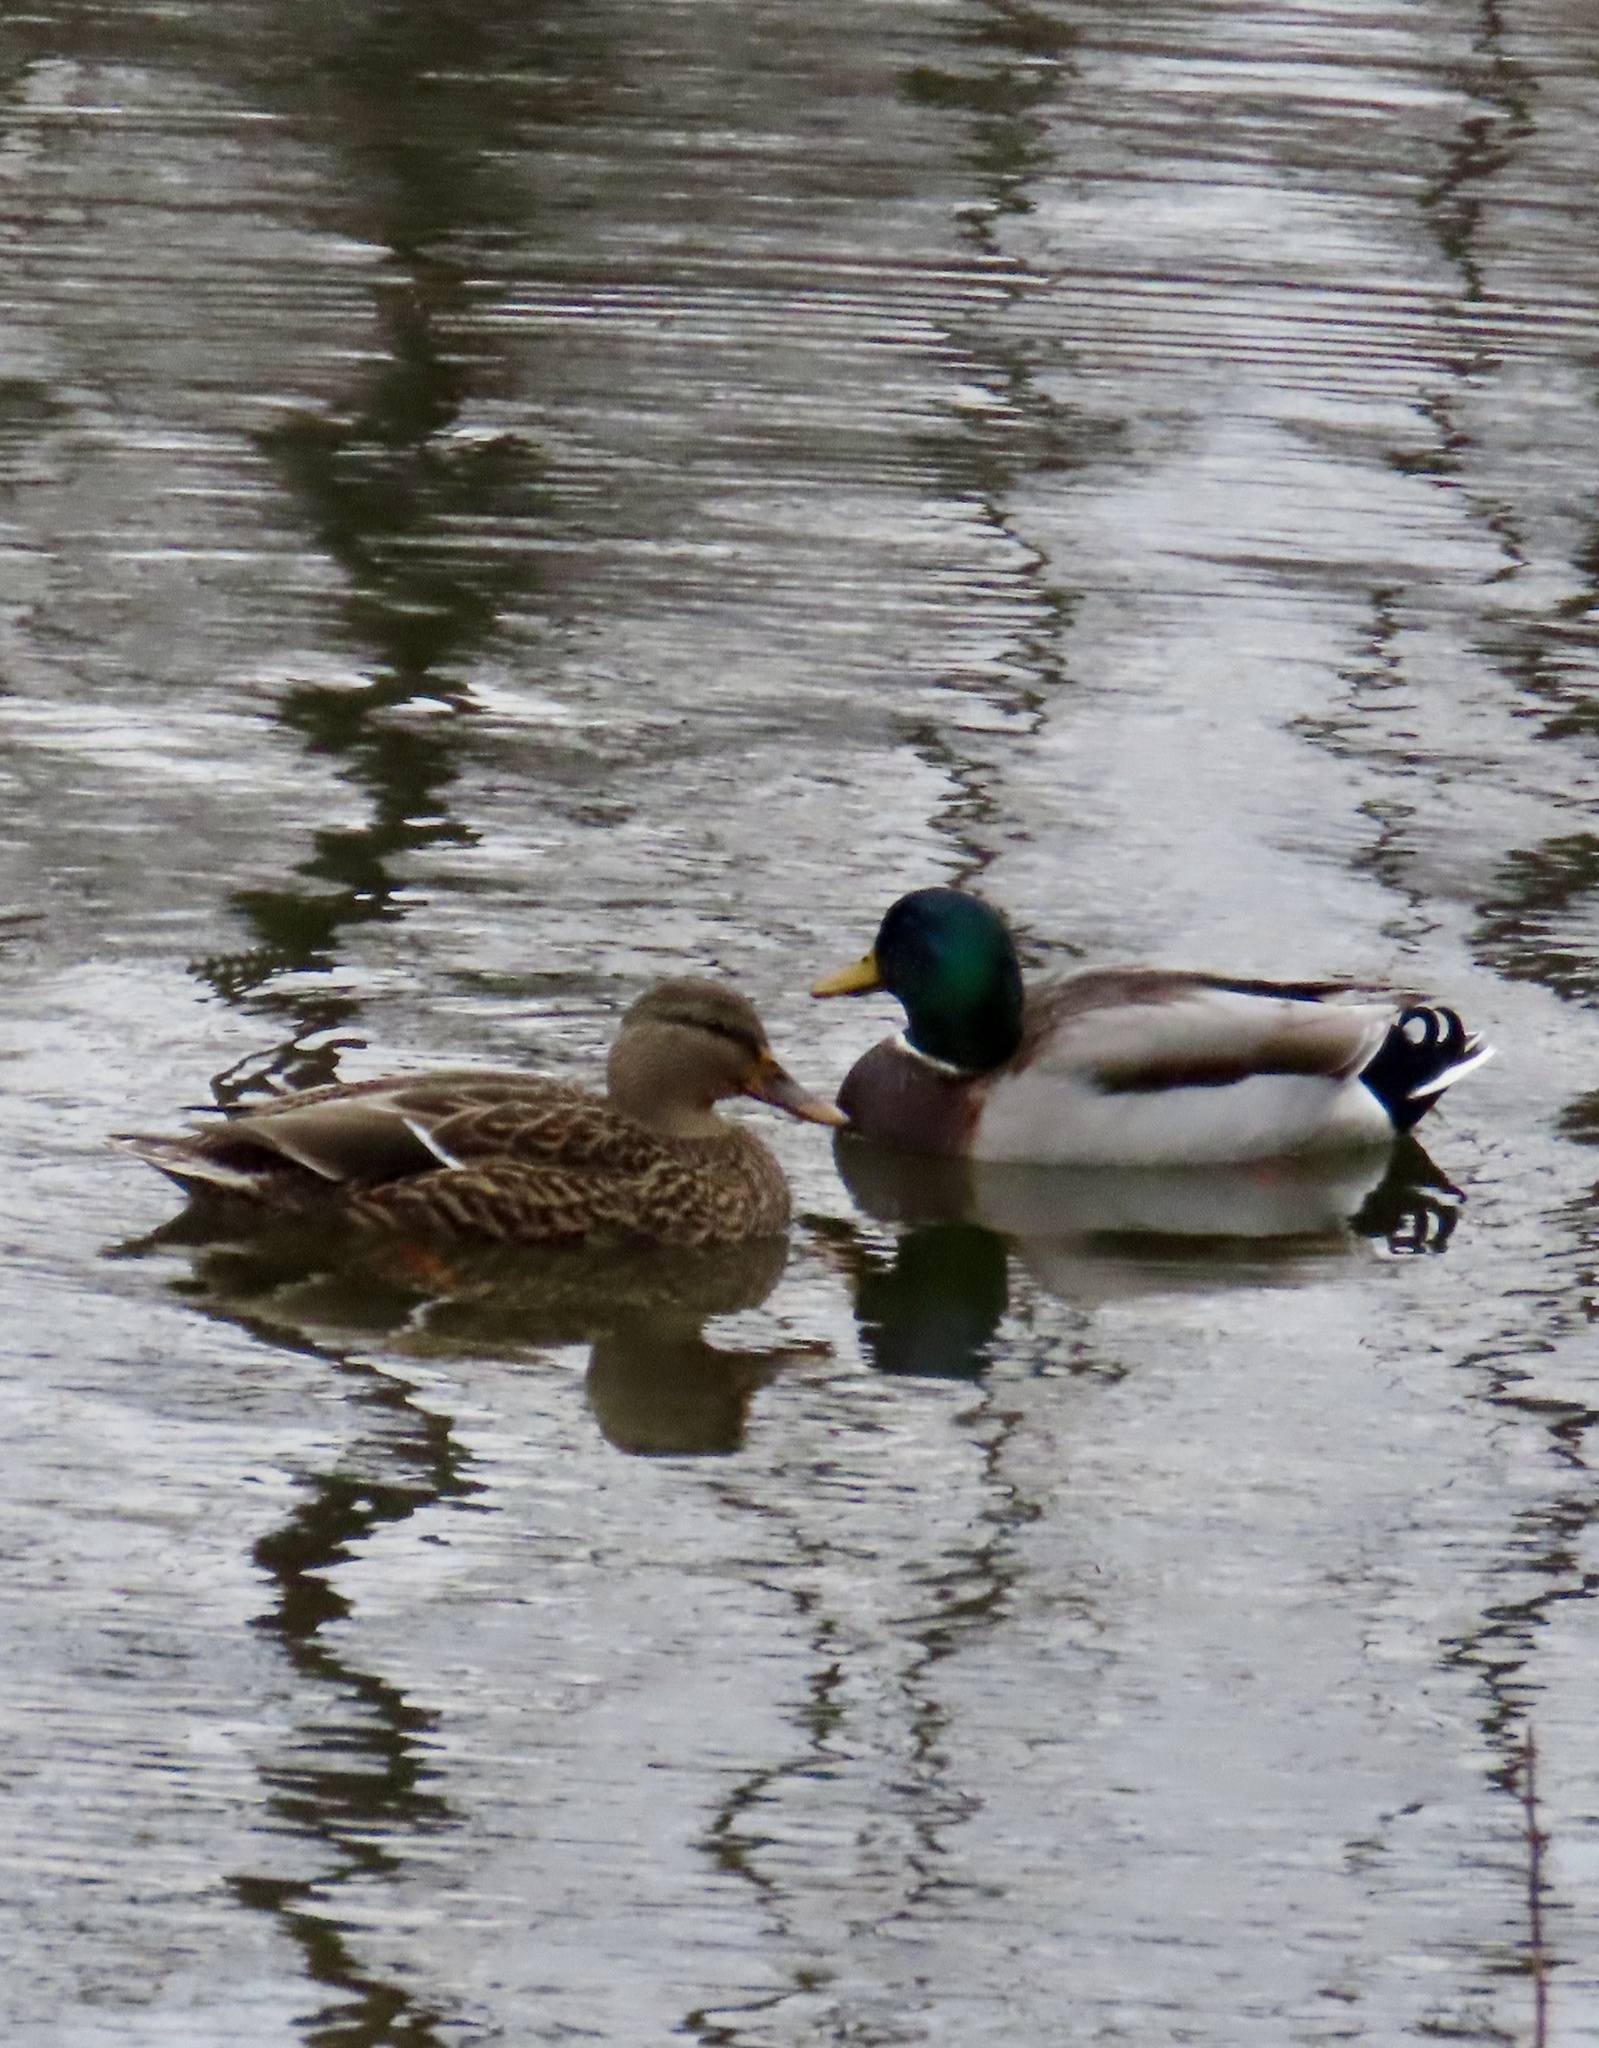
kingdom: Animalia
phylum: Chordata
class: Aves
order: Anseriformes
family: Anatidae
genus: Anas
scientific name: Anas platyrhynchos
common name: Mallard
